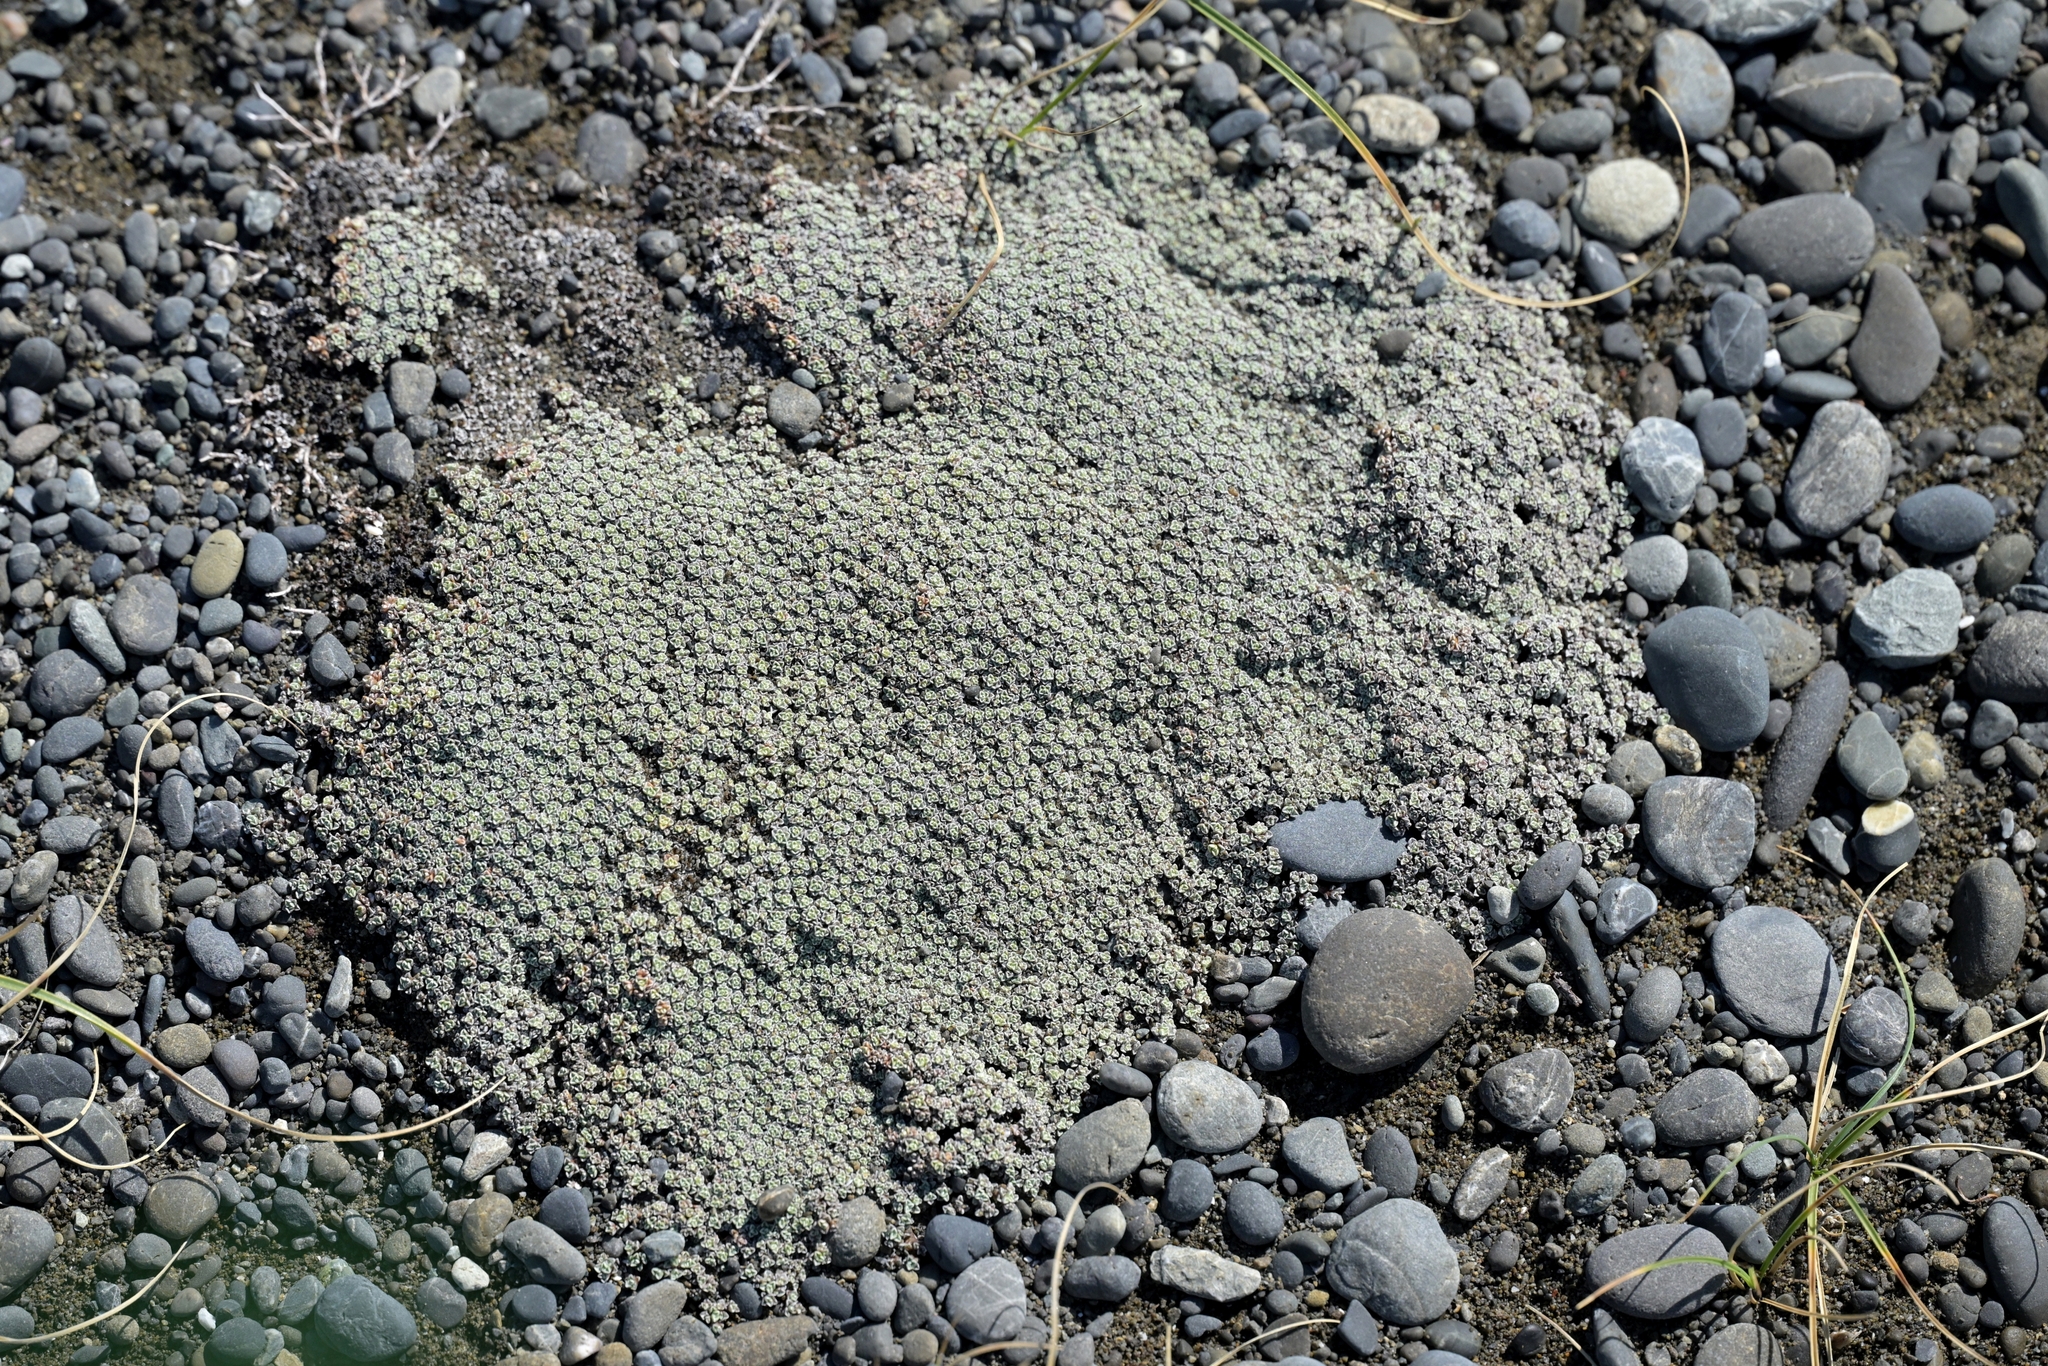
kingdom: Plantae
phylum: Tracheophyta
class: Magnoliopsida
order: Asterales
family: Asteraceae
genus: Raoulia
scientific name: Raoulia hookeri
